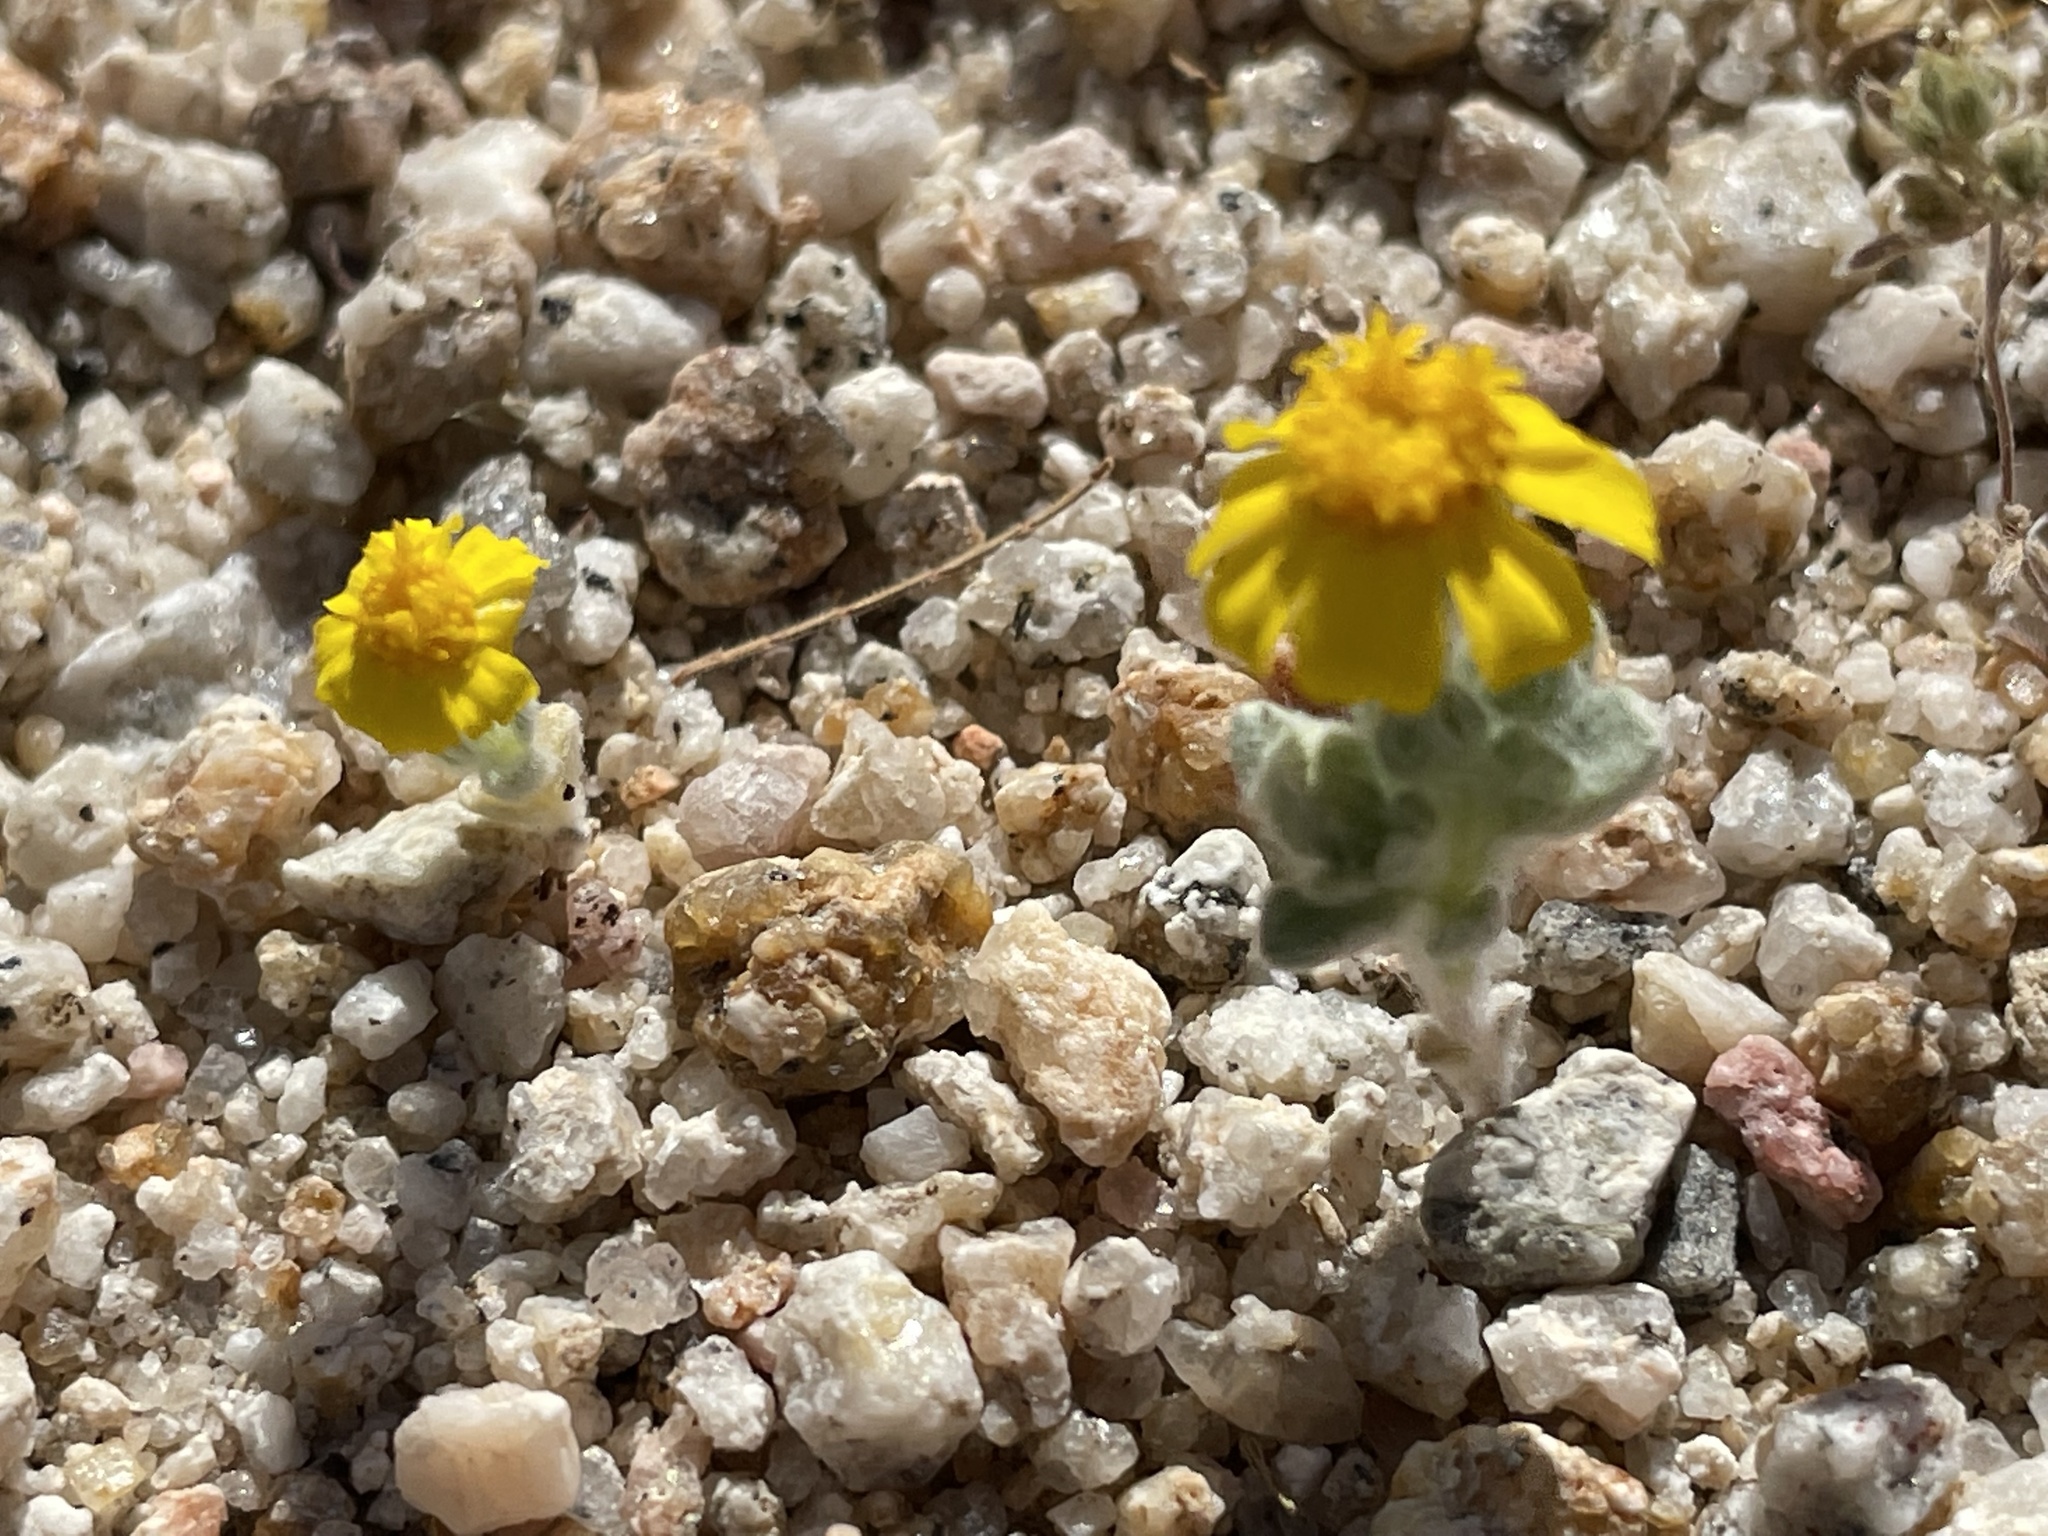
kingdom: Plantae
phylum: Tracheophyta
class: Magnoliopsida
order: Asterales
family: Asteraceae
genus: Eriophyllum
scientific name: Eriophyllum wallacei
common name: Wallace's woolly daisy
